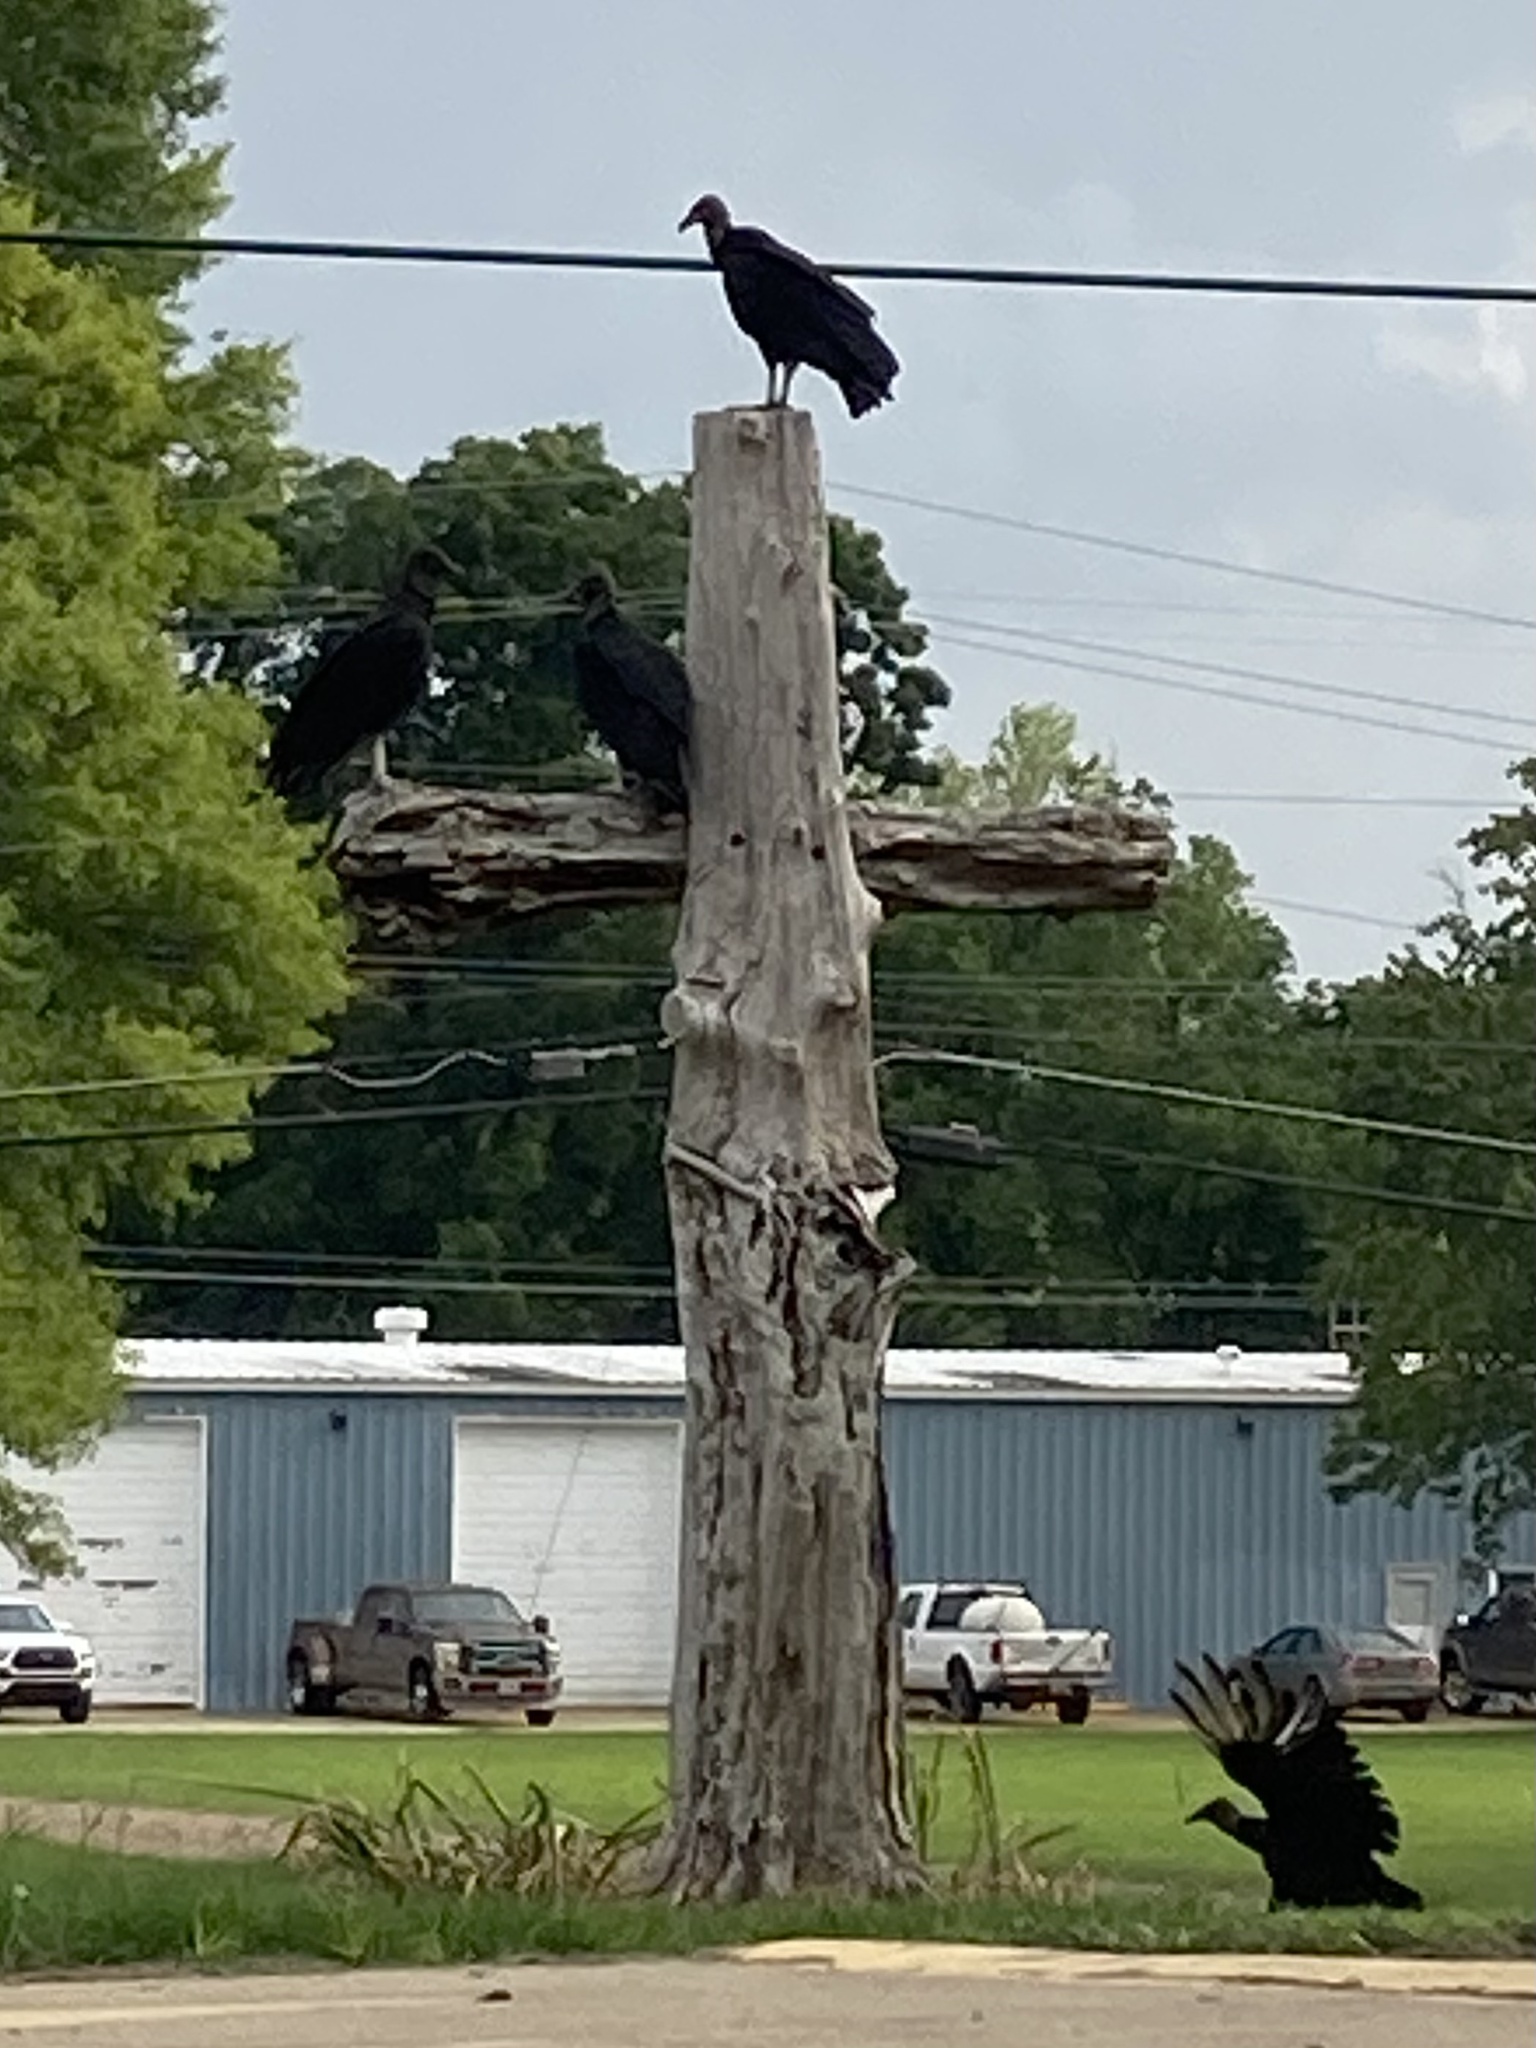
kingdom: Animalia
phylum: Chordata
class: Aves
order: Accipitriformes
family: Cathartidae
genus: Coragyps
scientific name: Coragyps atratus
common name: Black vulture
